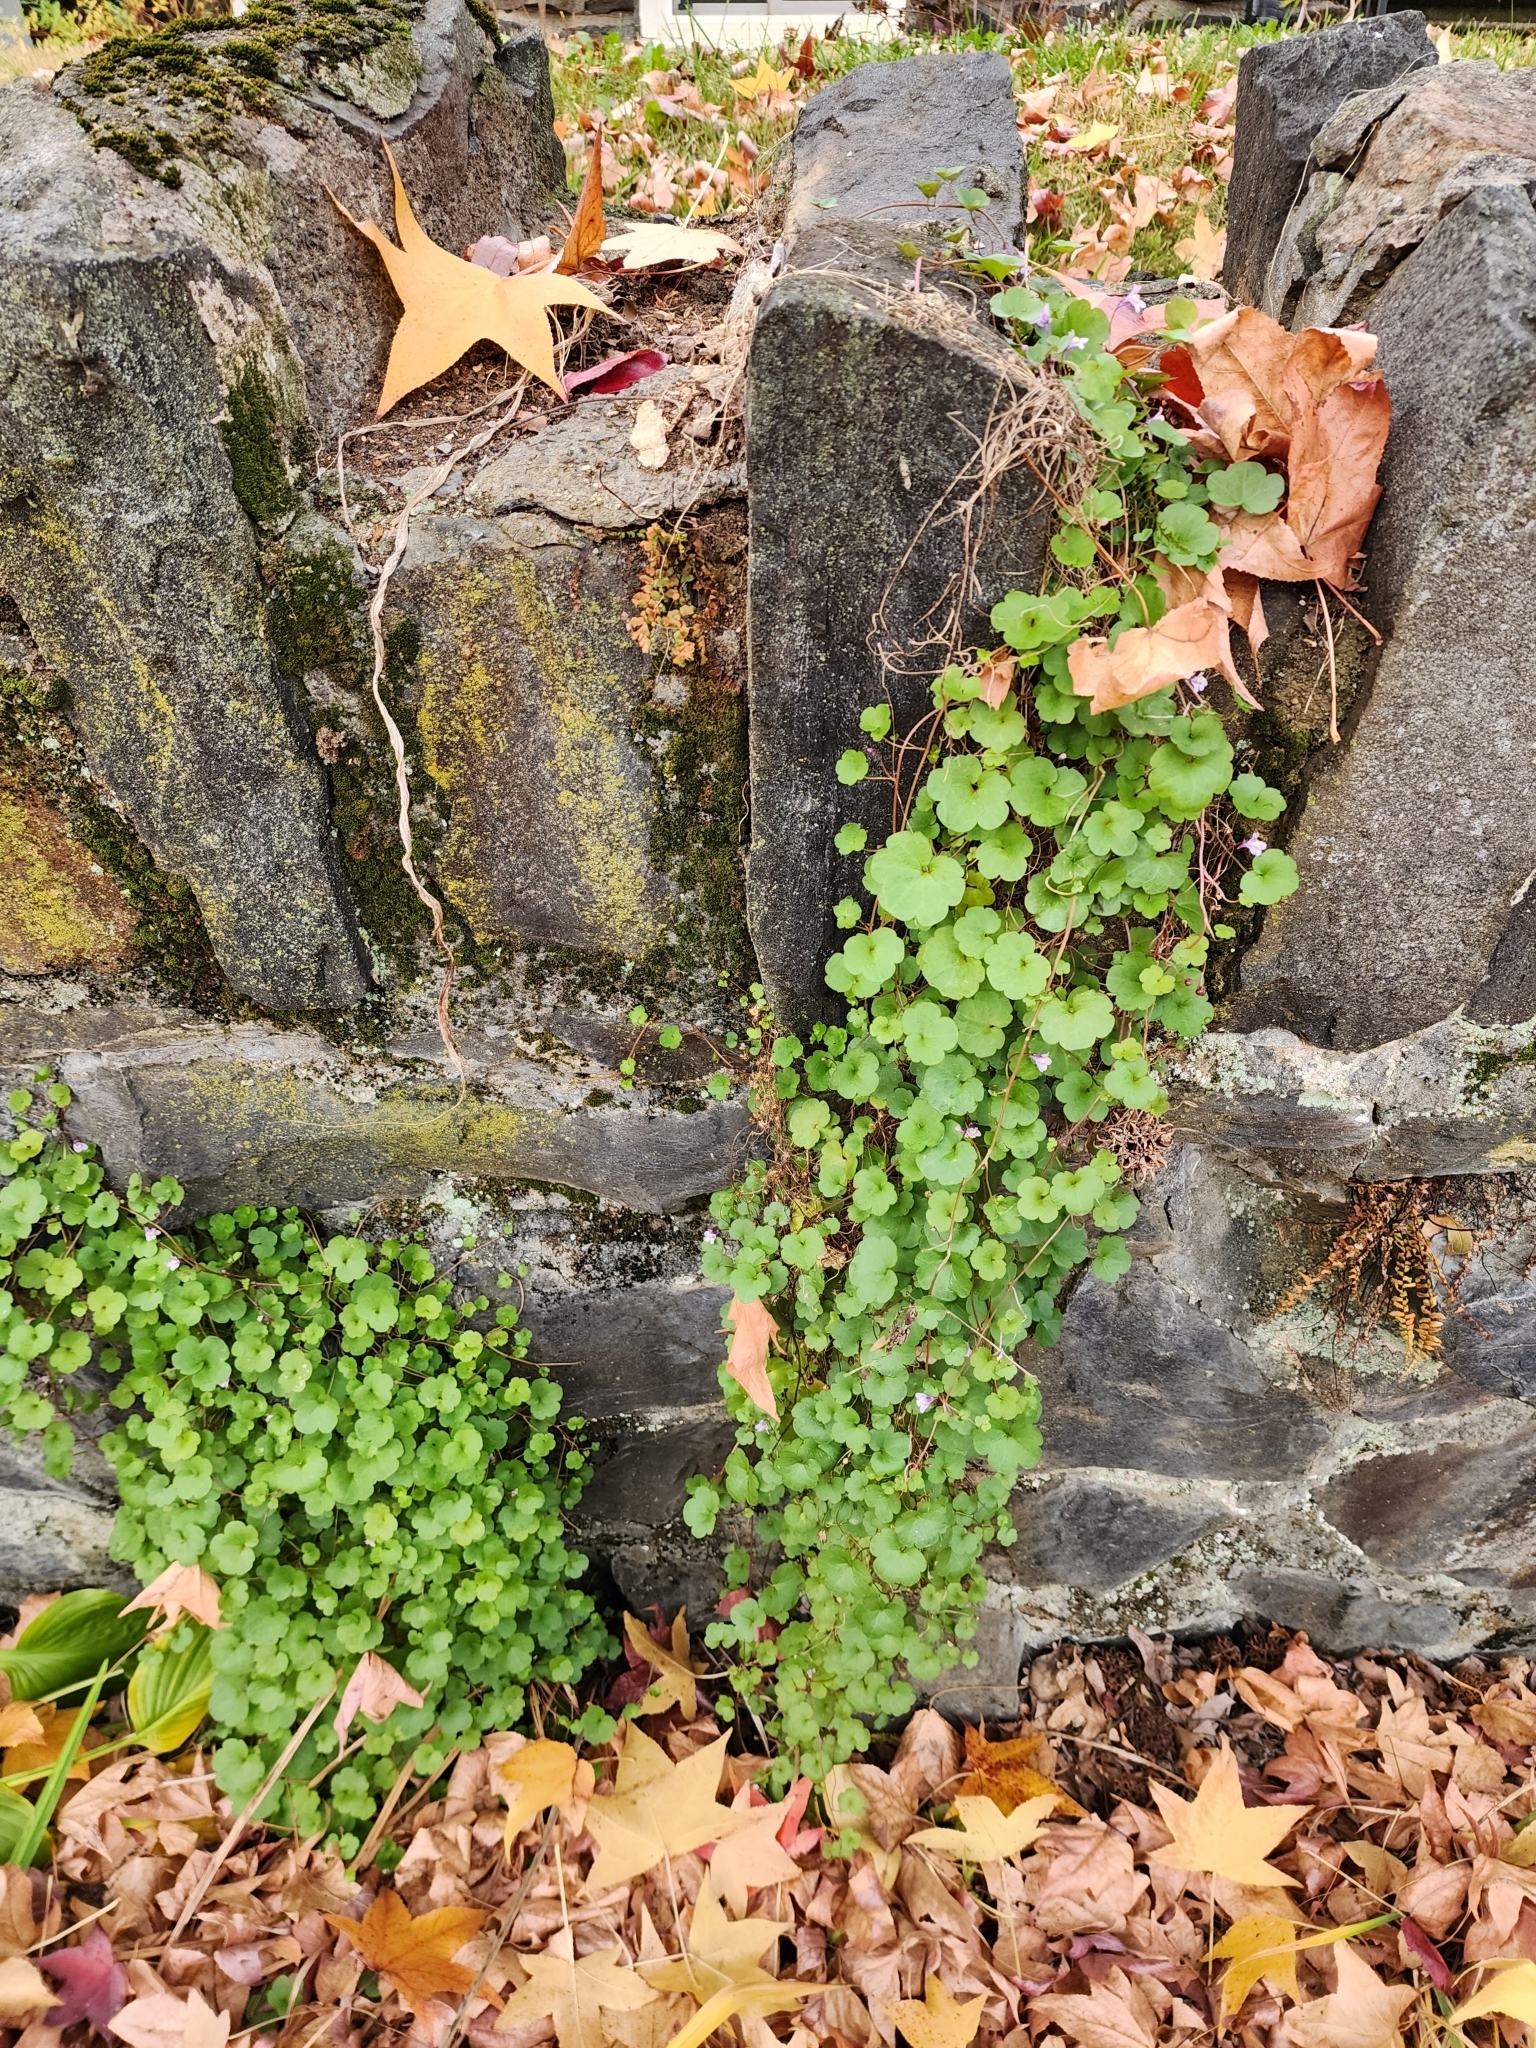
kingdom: Plantae
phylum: Tracheophyta
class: Magnoliopsida
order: Lamiales
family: Plantaginaceae
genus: Cymbalaria
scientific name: Cymbalaria muralis
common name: Ivy-leaved toadflax
